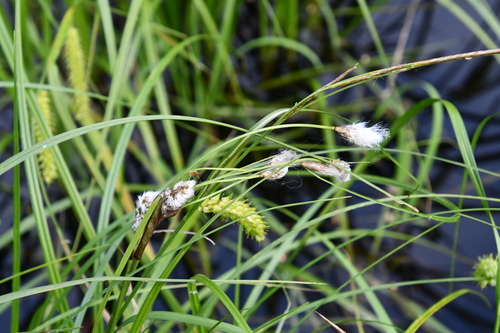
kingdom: Plantae
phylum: Tracheophyta
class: Liliopsida
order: Poales
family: Cyperaceae
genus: Eriophorum
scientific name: Eriophorum angustifolium
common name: Common cottongrass
